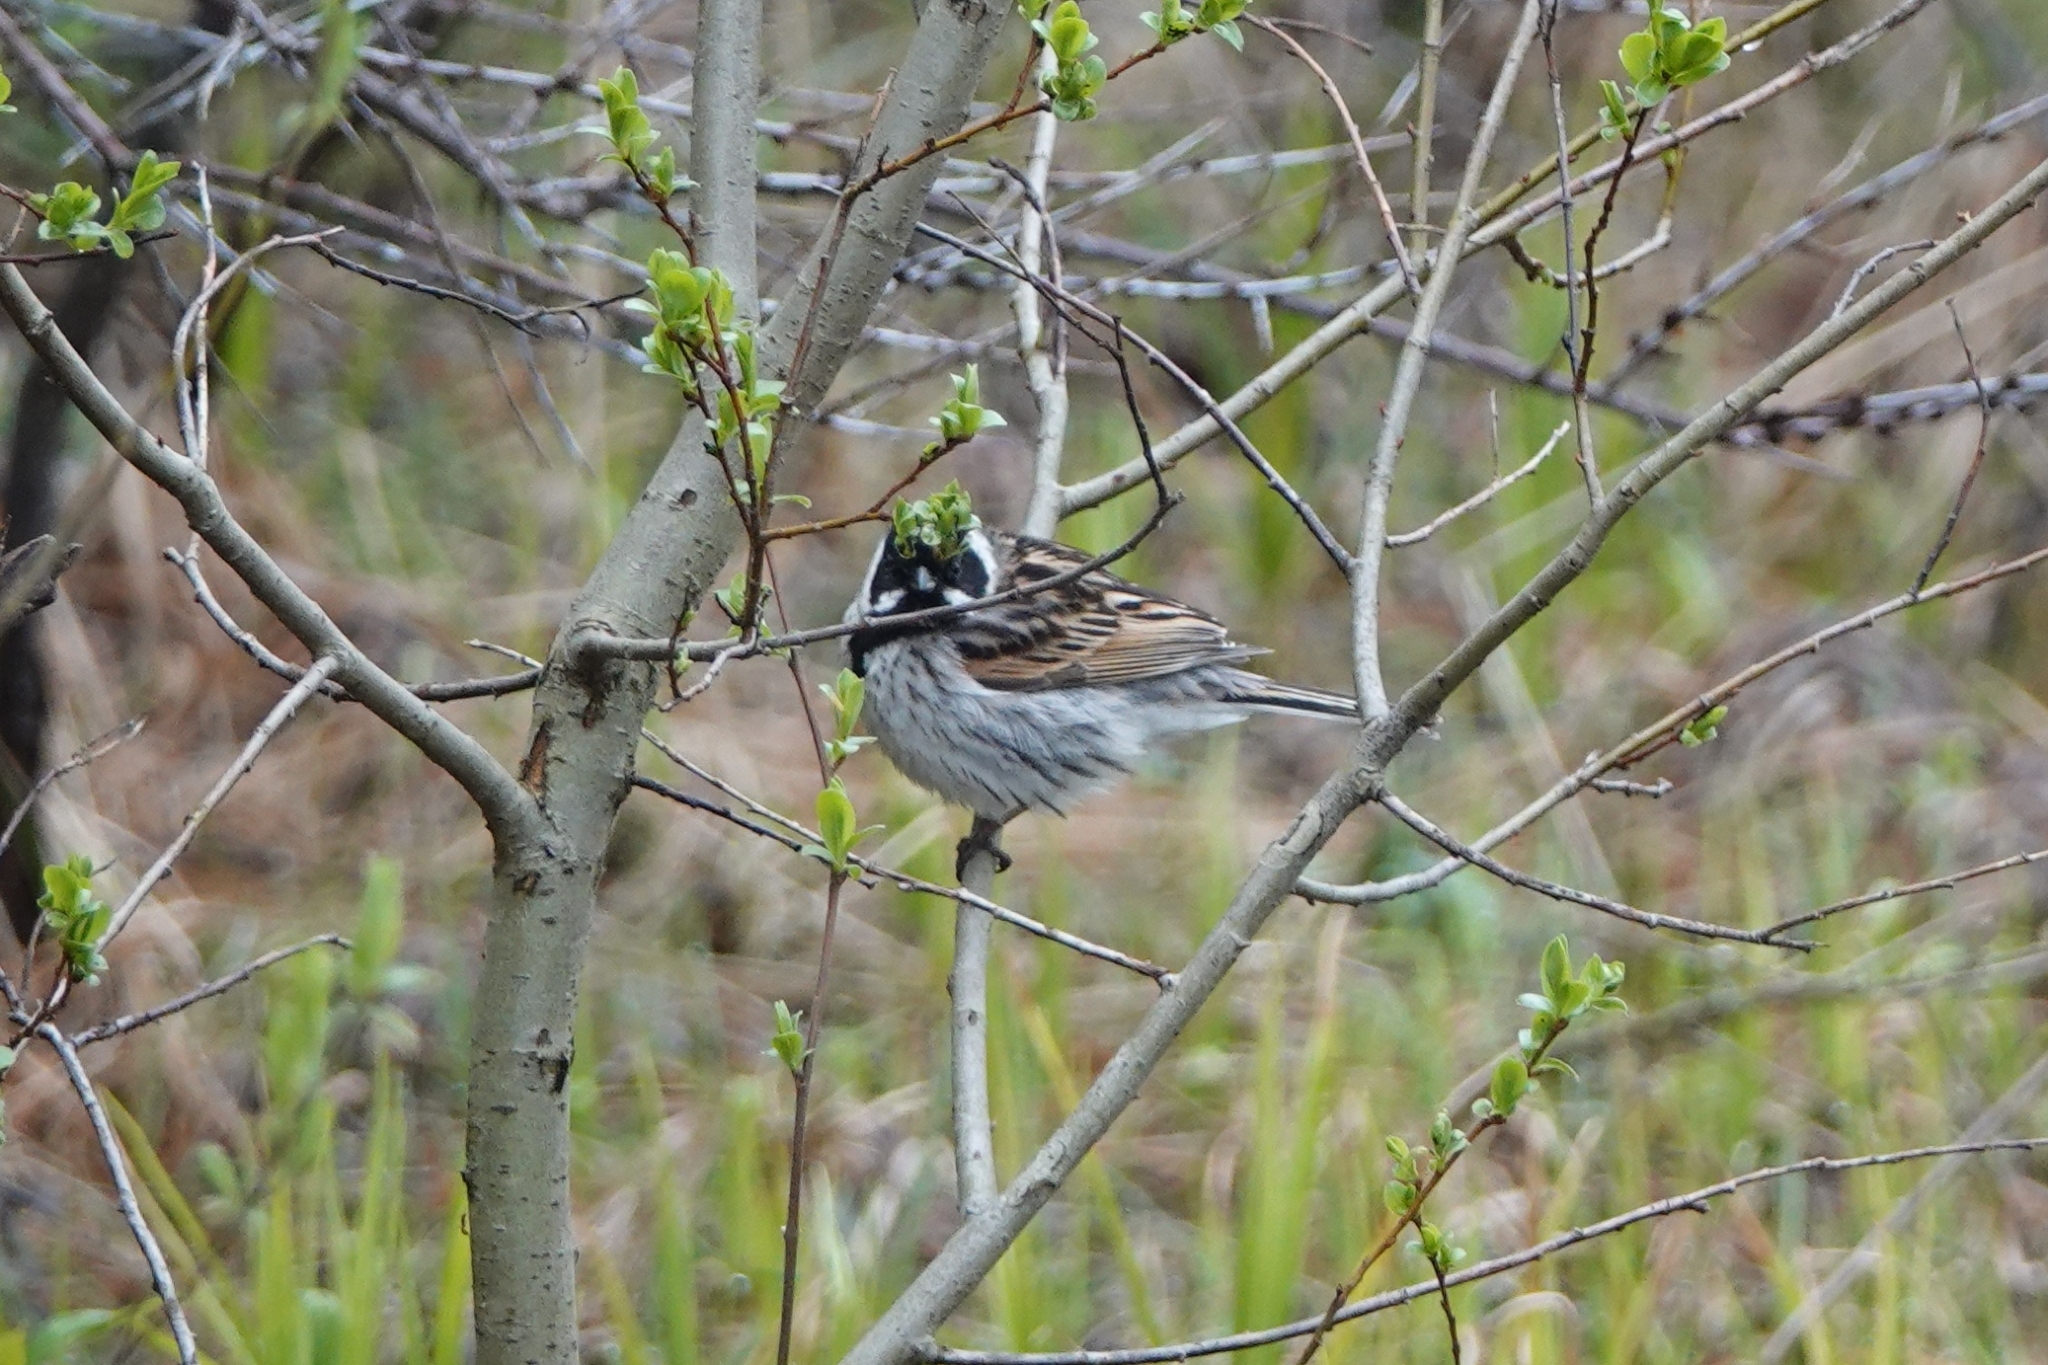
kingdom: Animalia
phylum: Chordata
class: Aves
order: Passeriformes
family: Emberizidae
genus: Emberiza
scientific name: Emberiza schoeniclus
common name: Reed bunting
